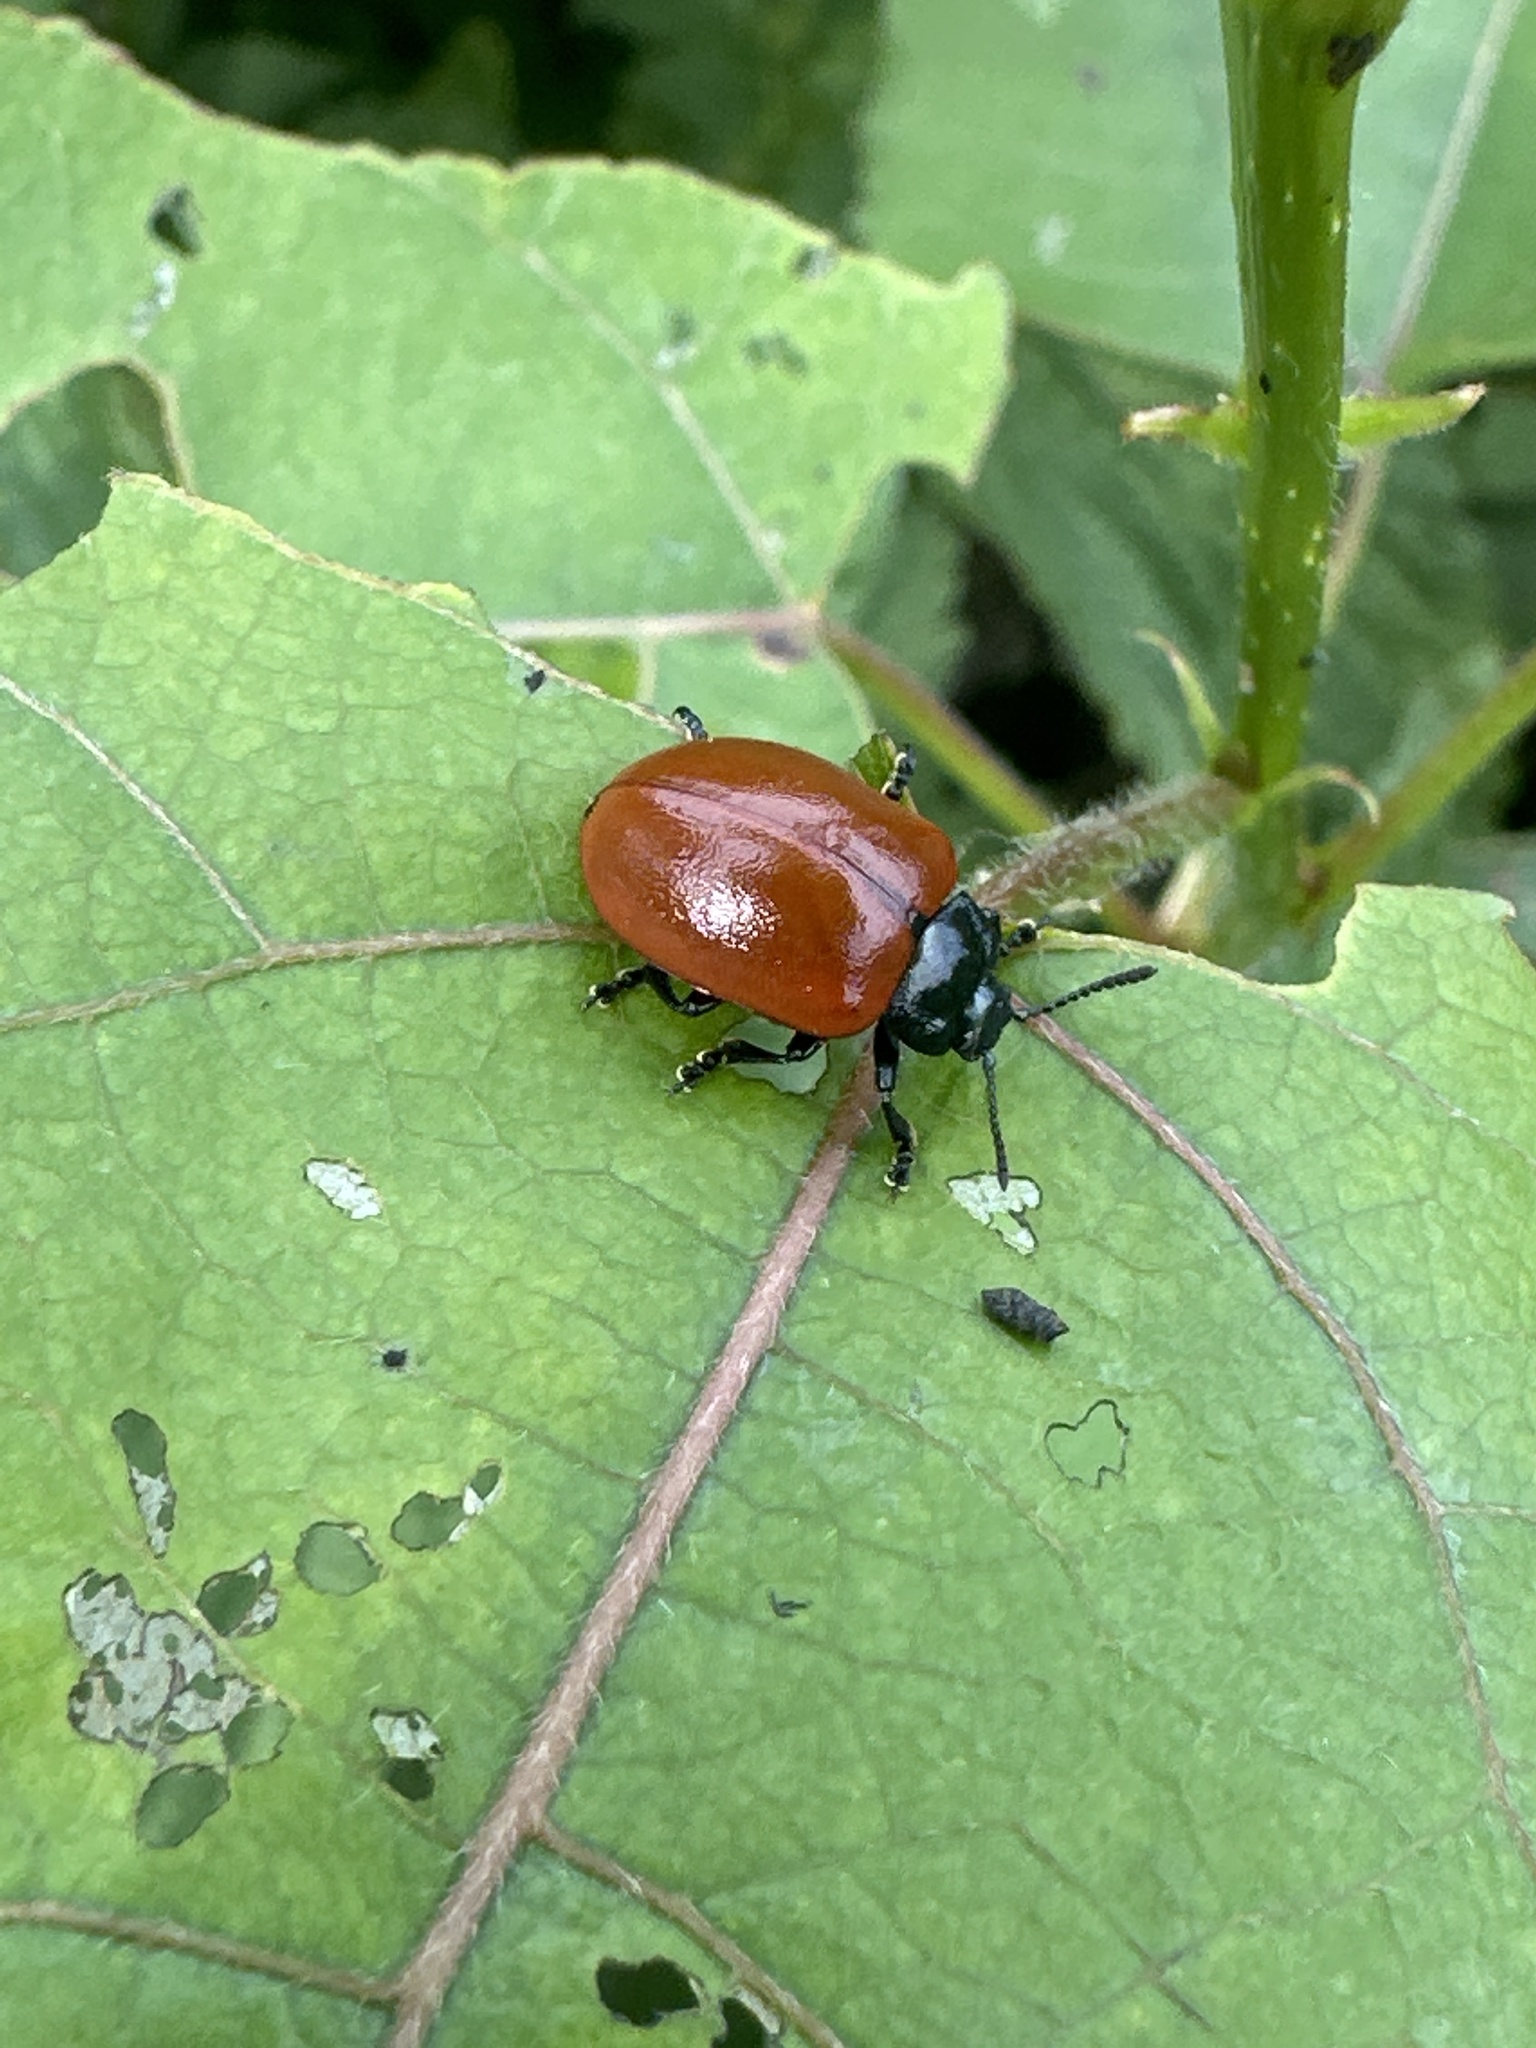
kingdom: Animalia
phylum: Arthropoda
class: Insecta
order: Coleoptera
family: Chrysomelidae
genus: Chrysomela
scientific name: Chrysomela populi
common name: Red poplar leaf beetle
